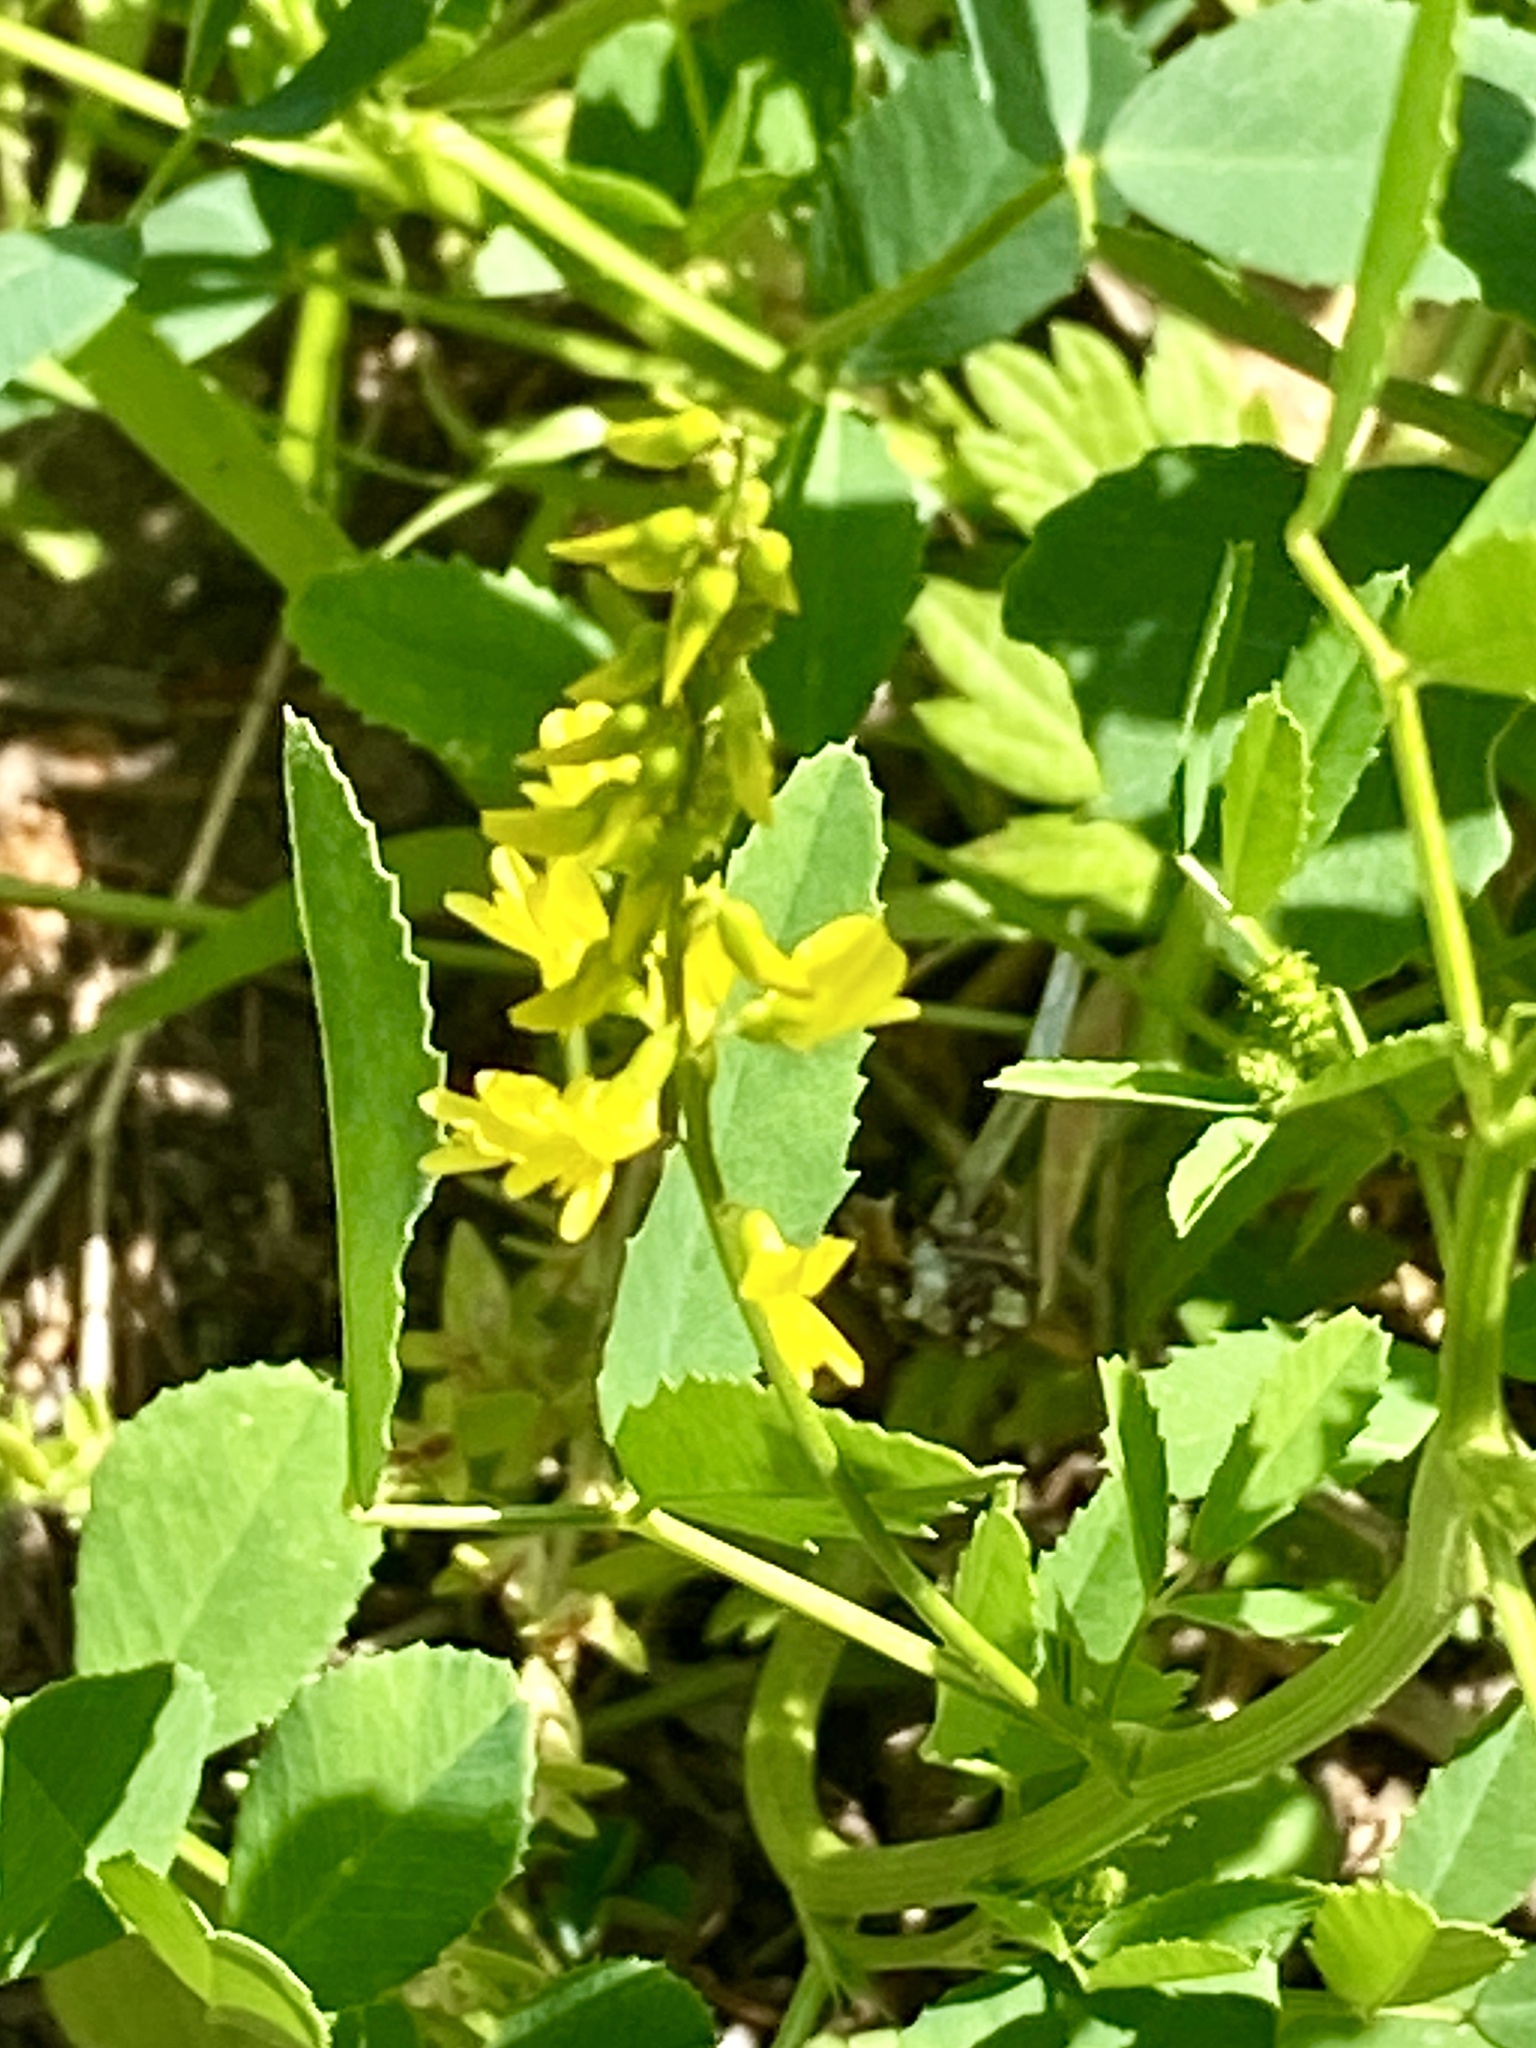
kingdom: Plantae
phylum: Tracheophyta
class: Magnoliopsida
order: Fabales
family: Fabaceae
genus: Melilotus
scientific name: Melilotus officinalis
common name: Sweetclover
